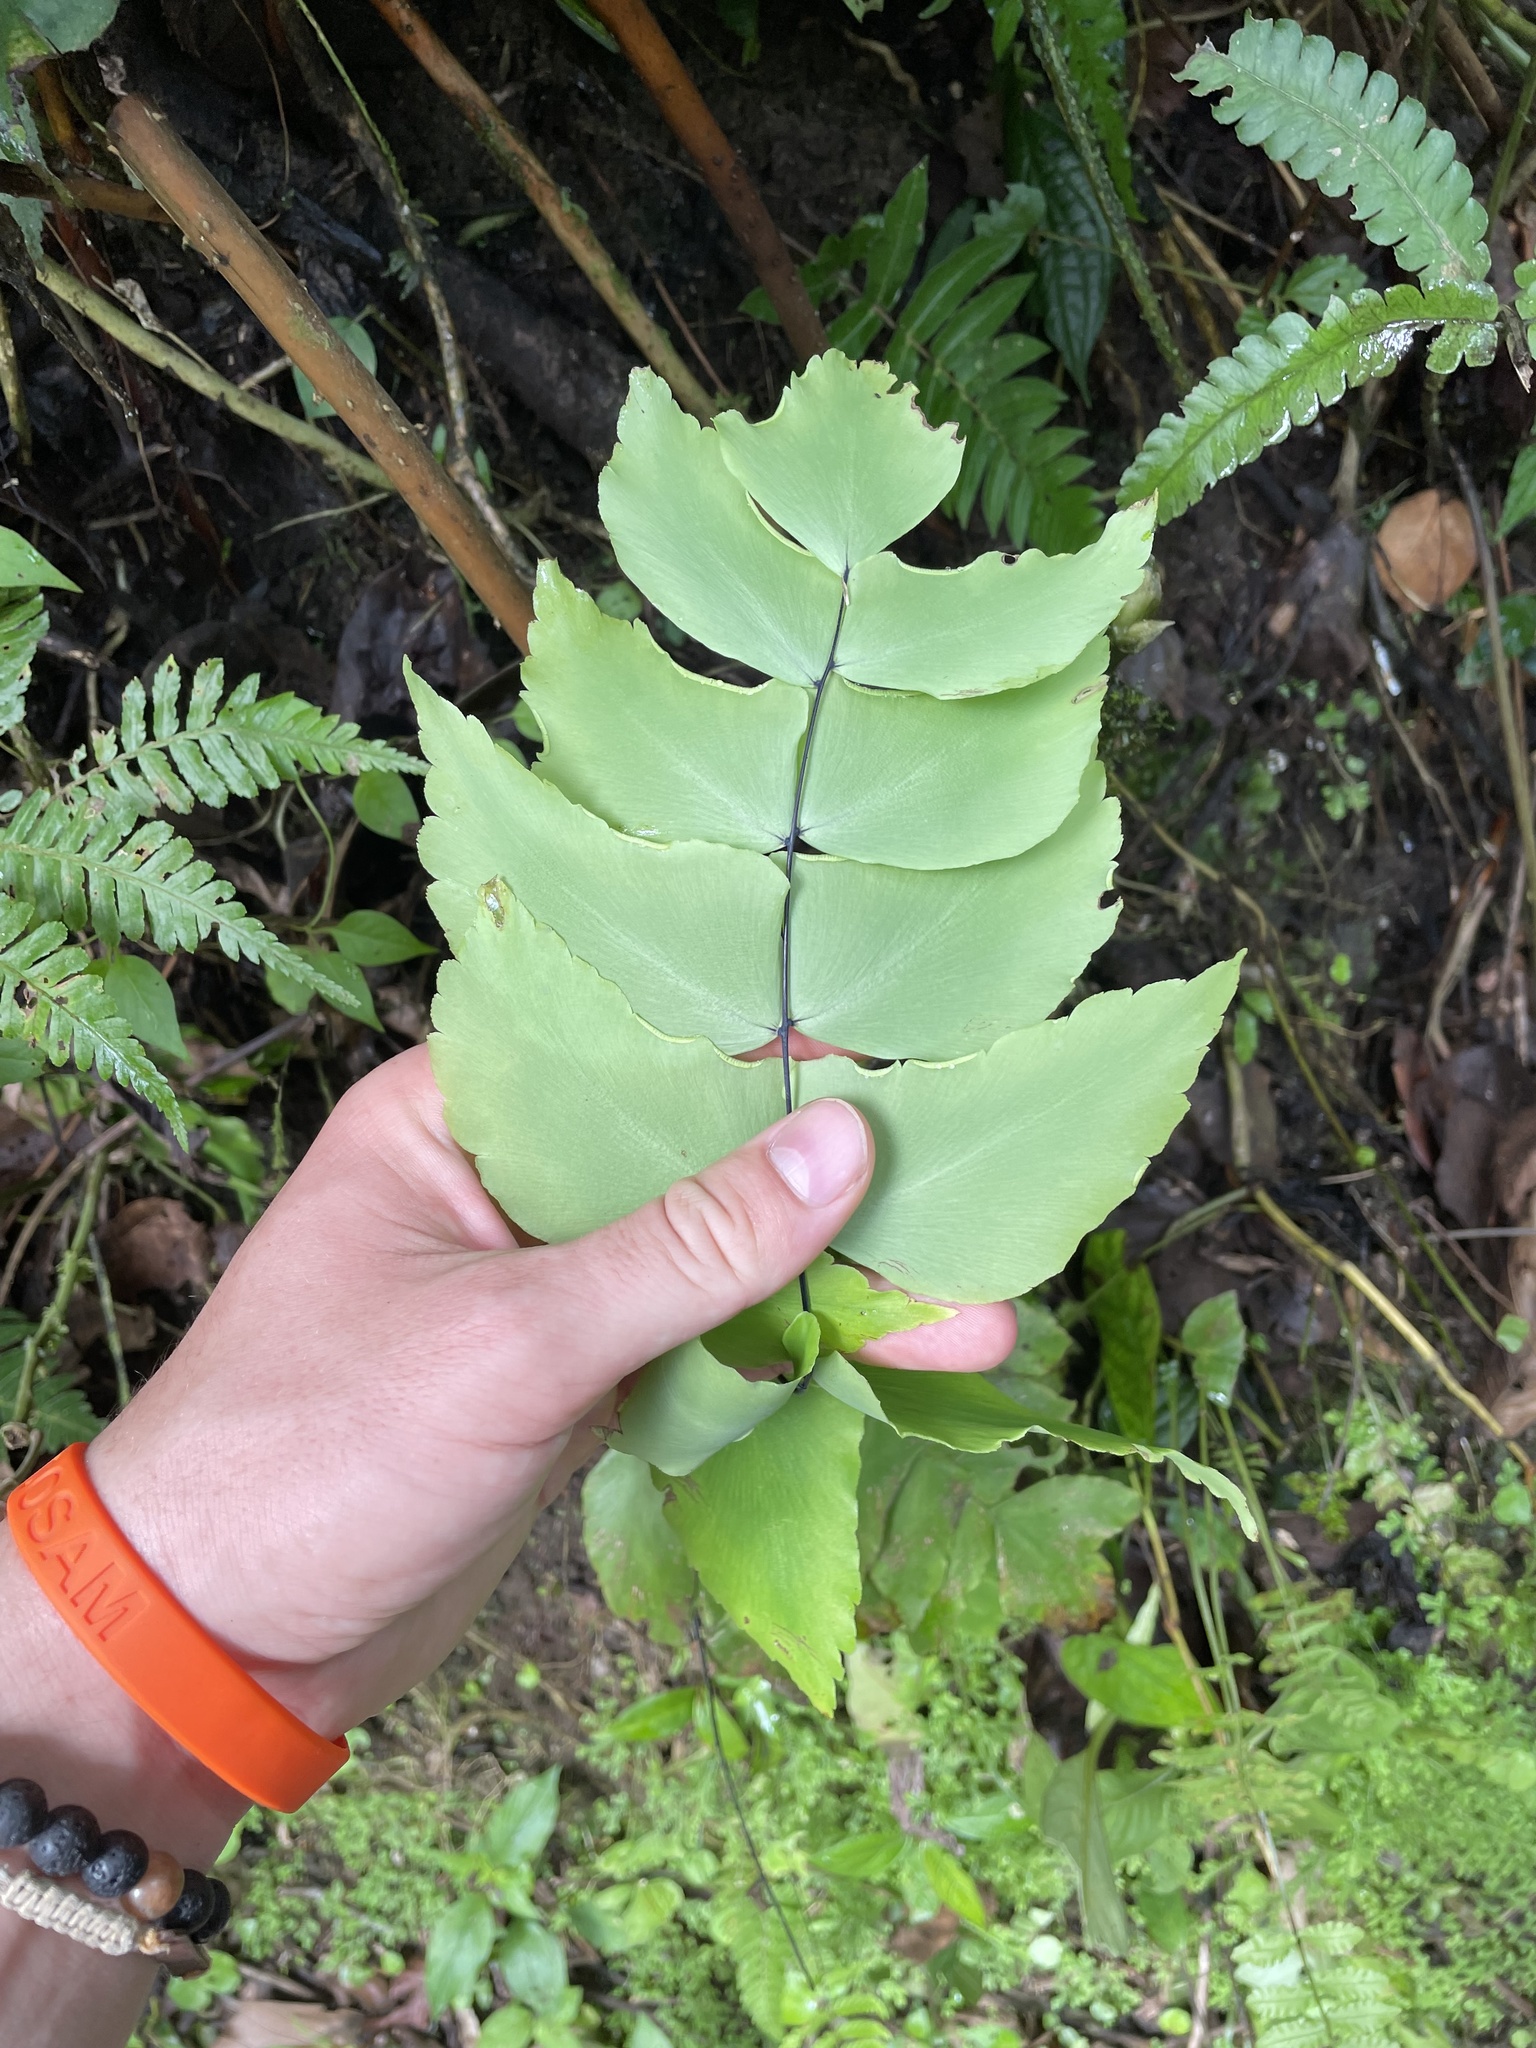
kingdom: Plantae
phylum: Tracheophyta
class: Polypodiopsida
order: Polypodiales
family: Pteridaceae
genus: Adiantum
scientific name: Adiantum macrophyllum
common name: Largeleaf maidenhair
